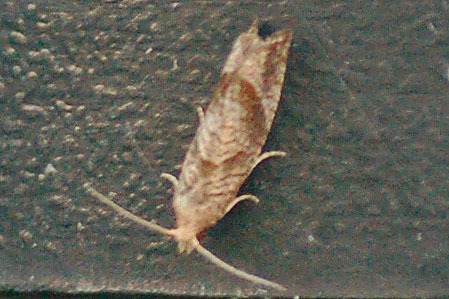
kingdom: Animalia
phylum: Arthropoda
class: Insecta
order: Lepidoptera
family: Tortricidae
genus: Pelochrista
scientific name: Pelochrista derelicta
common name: Derelict pelochrista moth
